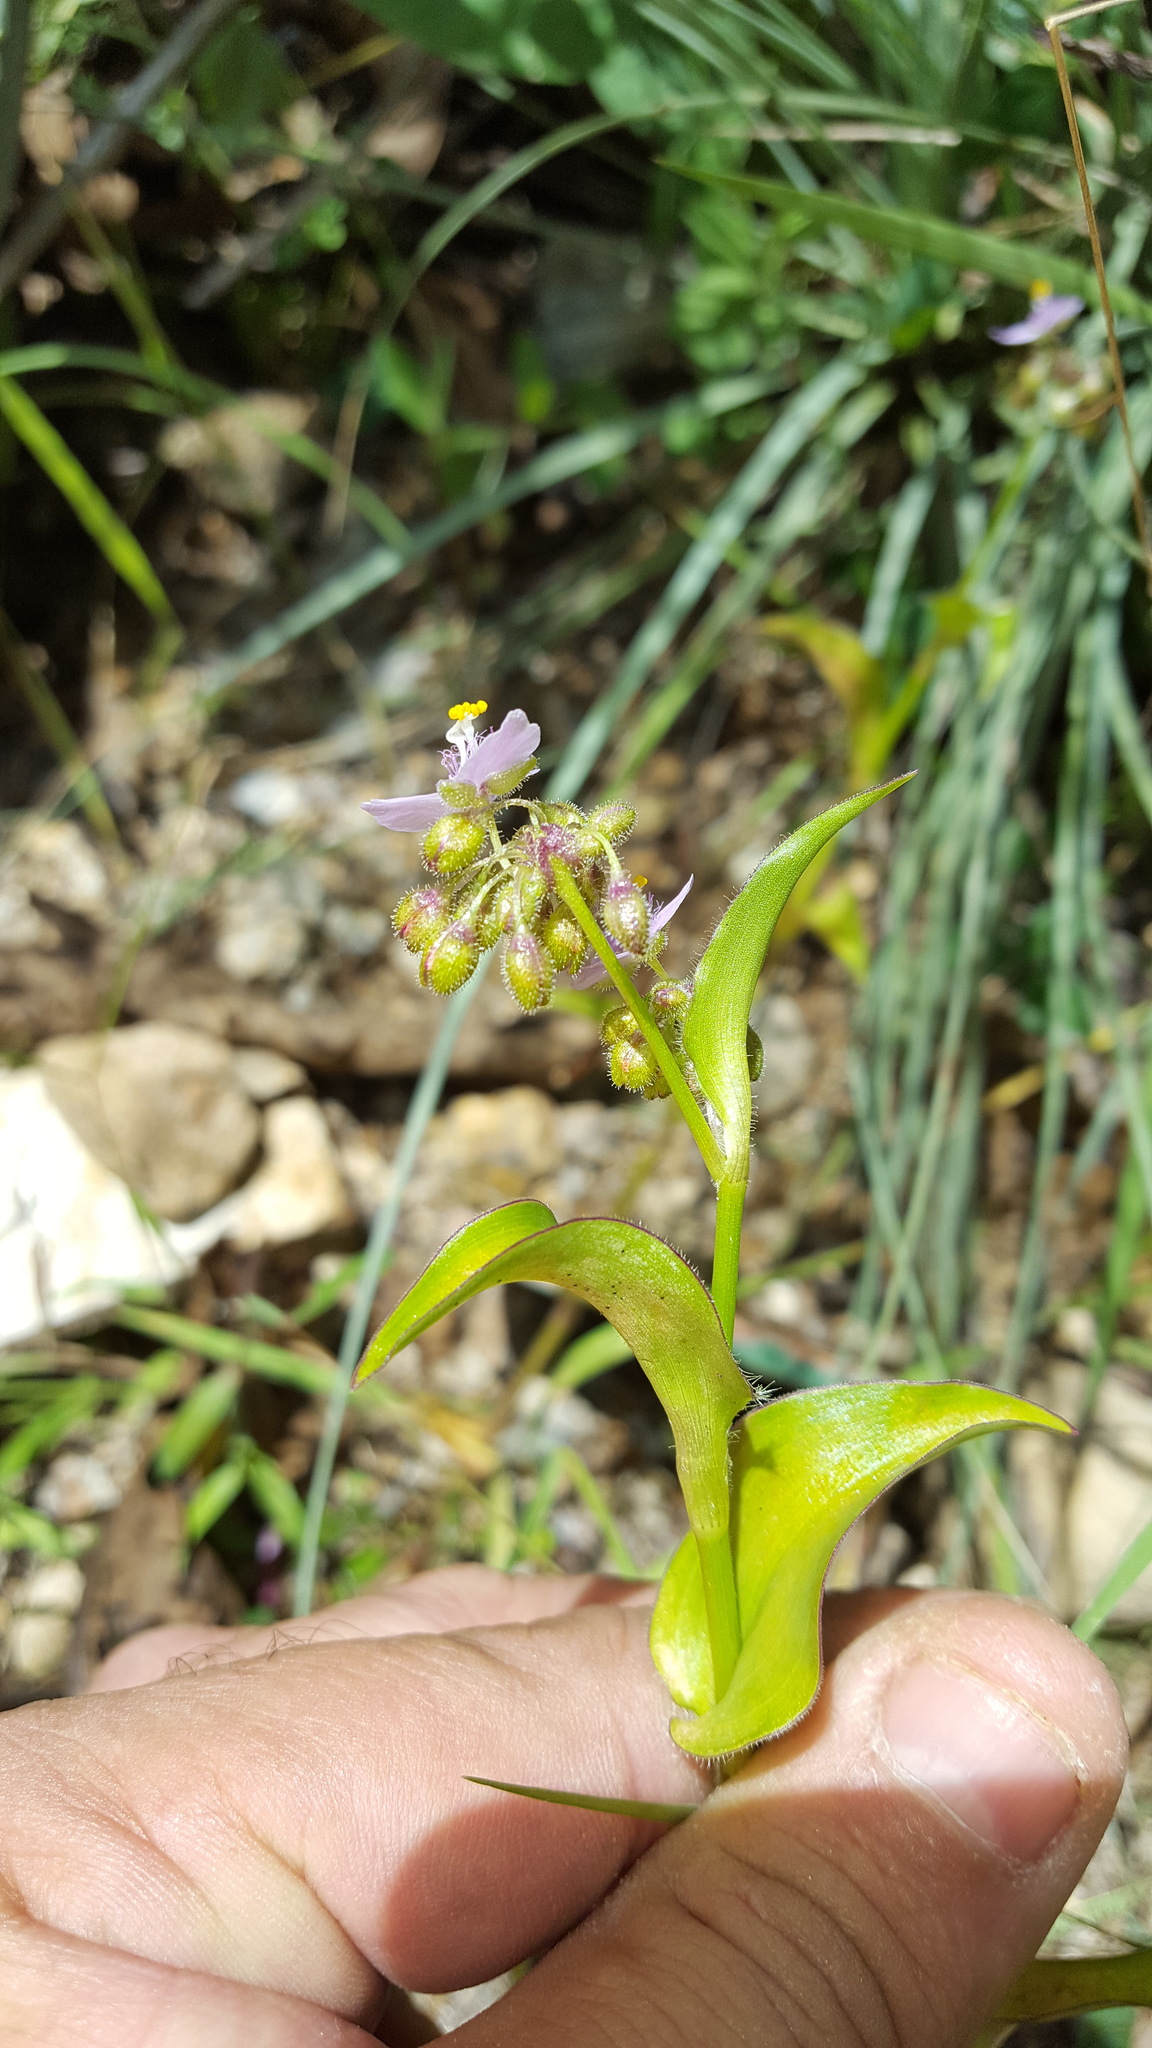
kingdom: Plantae
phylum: Tracheophyta
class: Liliopsida
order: Commelinales
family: Commelinaceae
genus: Callisia
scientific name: Callisia purpurascens
